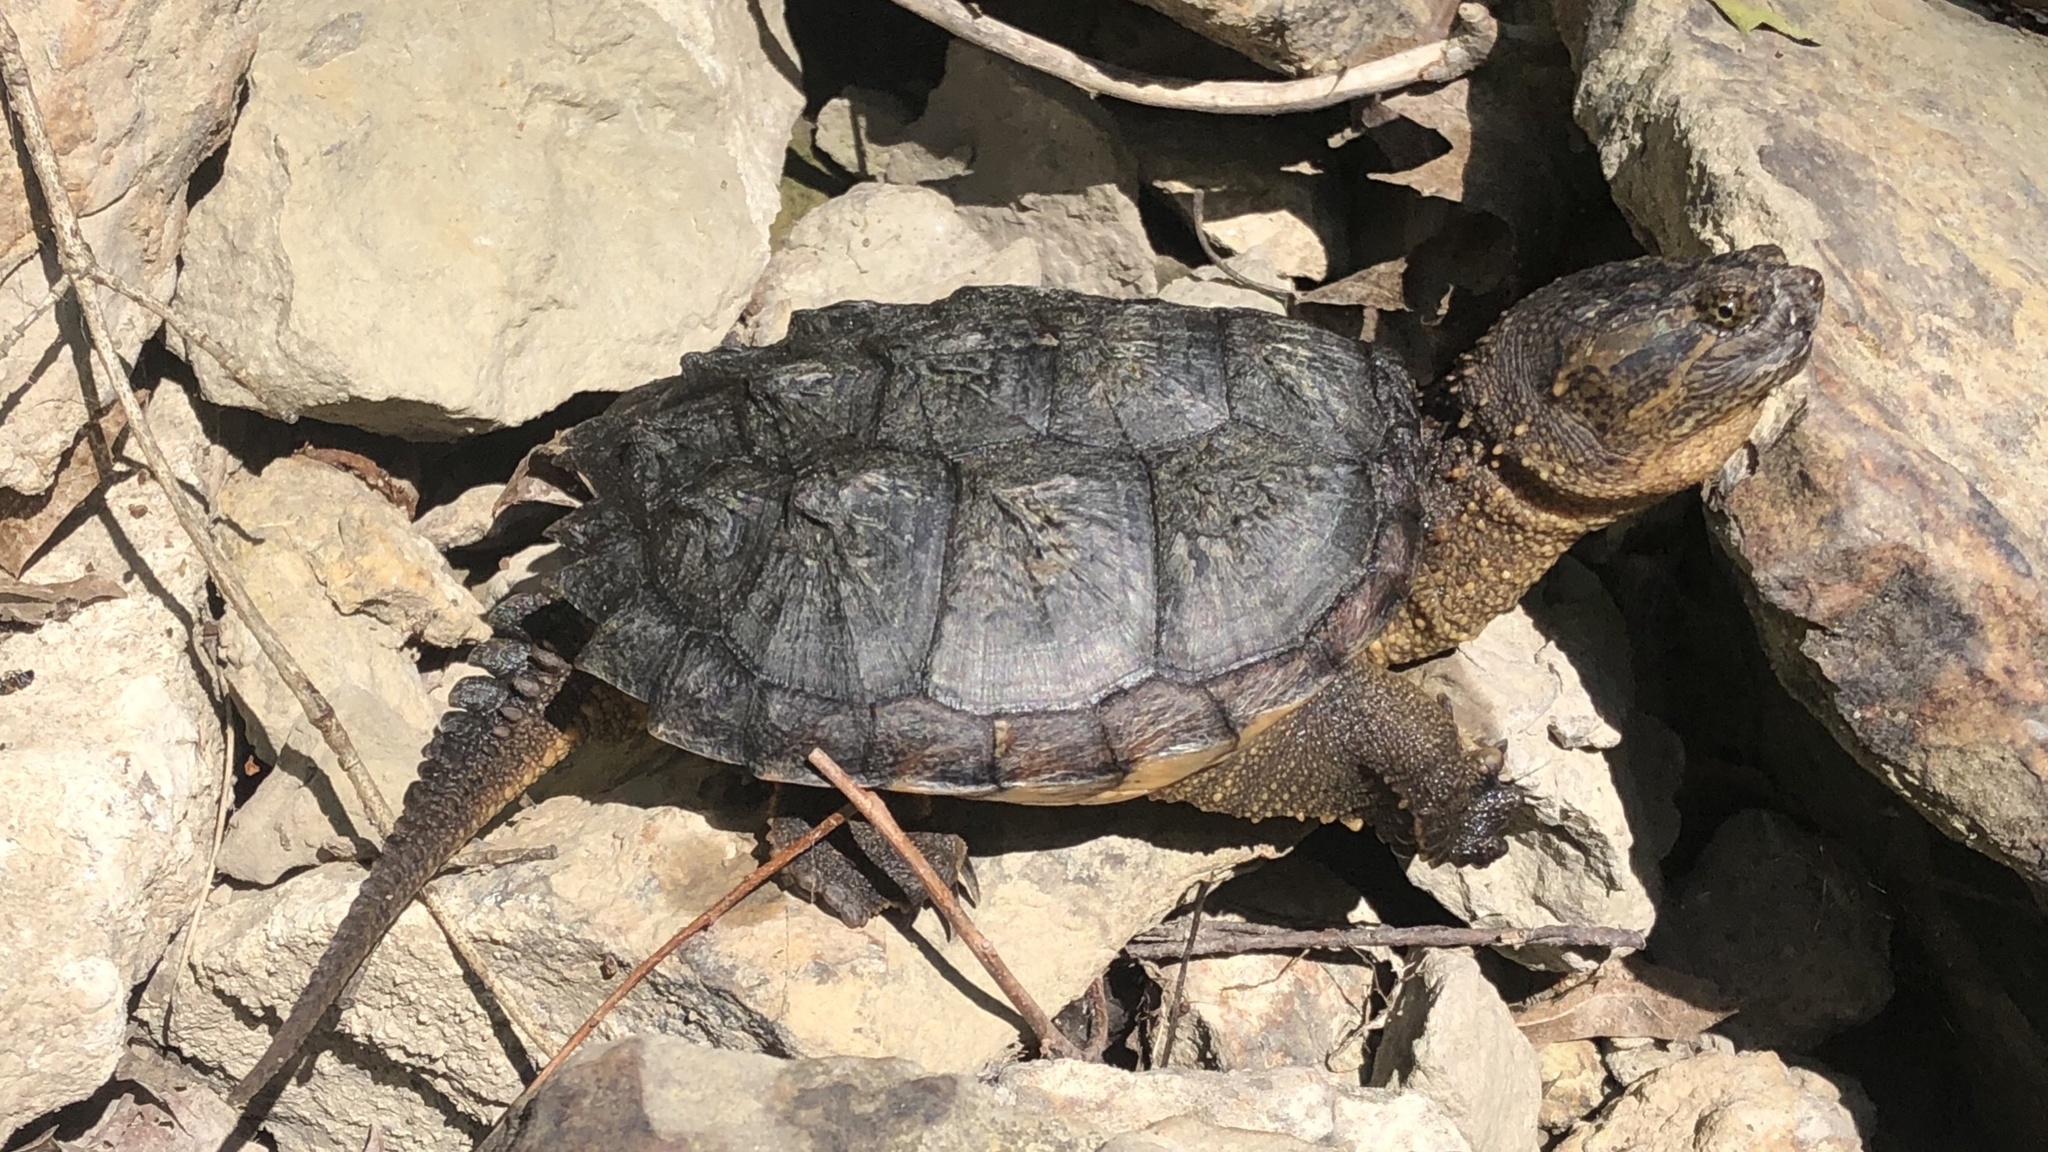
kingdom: Animalia
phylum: Chordata
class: Testudines
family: Chelydridae
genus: Chelydra
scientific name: Chelydra serpentina
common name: Common snapping turtle
